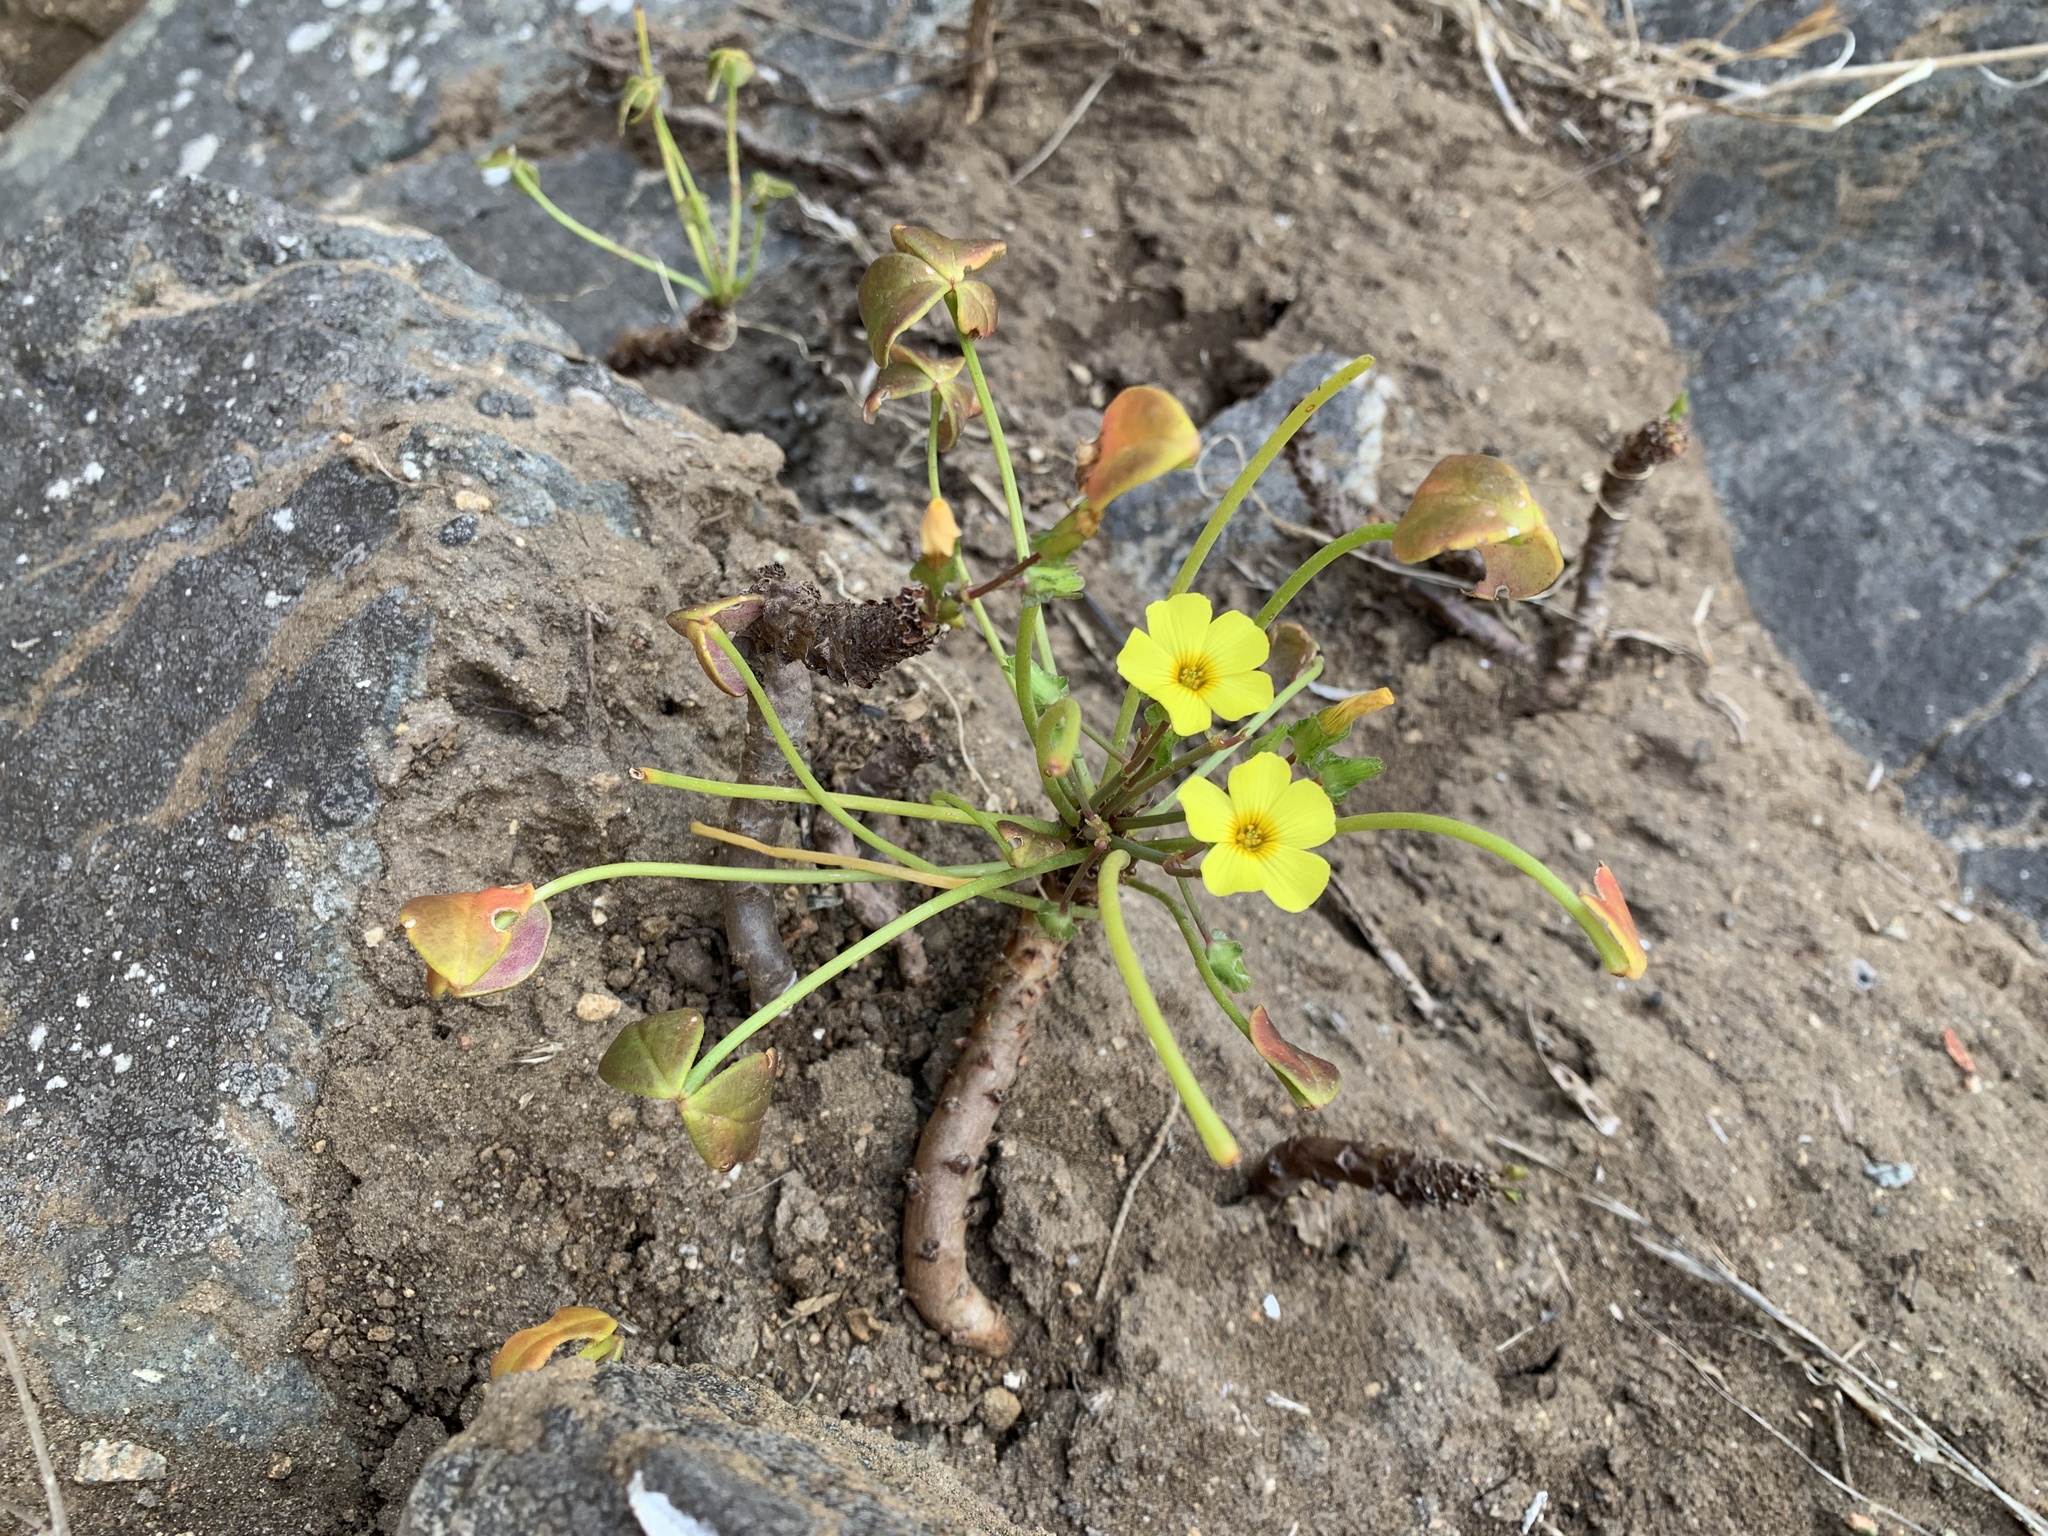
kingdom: Plantae
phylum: Tracheophyta
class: Magnoliopsida
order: Oxalidales
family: Oxalidaceae
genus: Oxalis
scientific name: Oxalis megalorrhiza
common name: Fleshy yellow-sorrel
